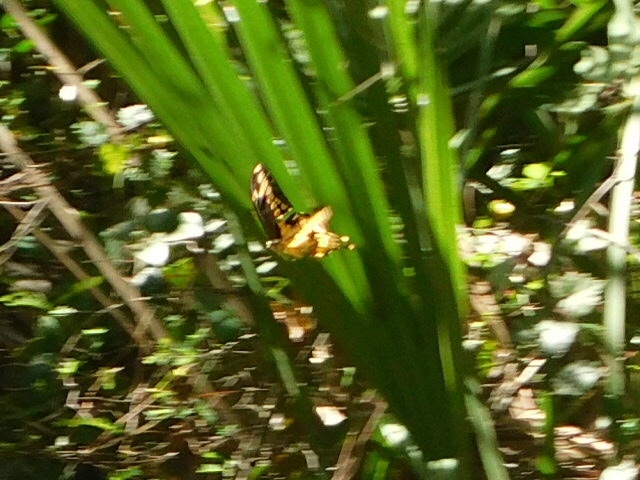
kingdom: Animalia
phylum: Arthropoda
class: Insecta
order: Lepidoptera
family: Papilionidae
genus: Papilio
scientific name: Papilio cresphontes
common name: Giant swallowtail
